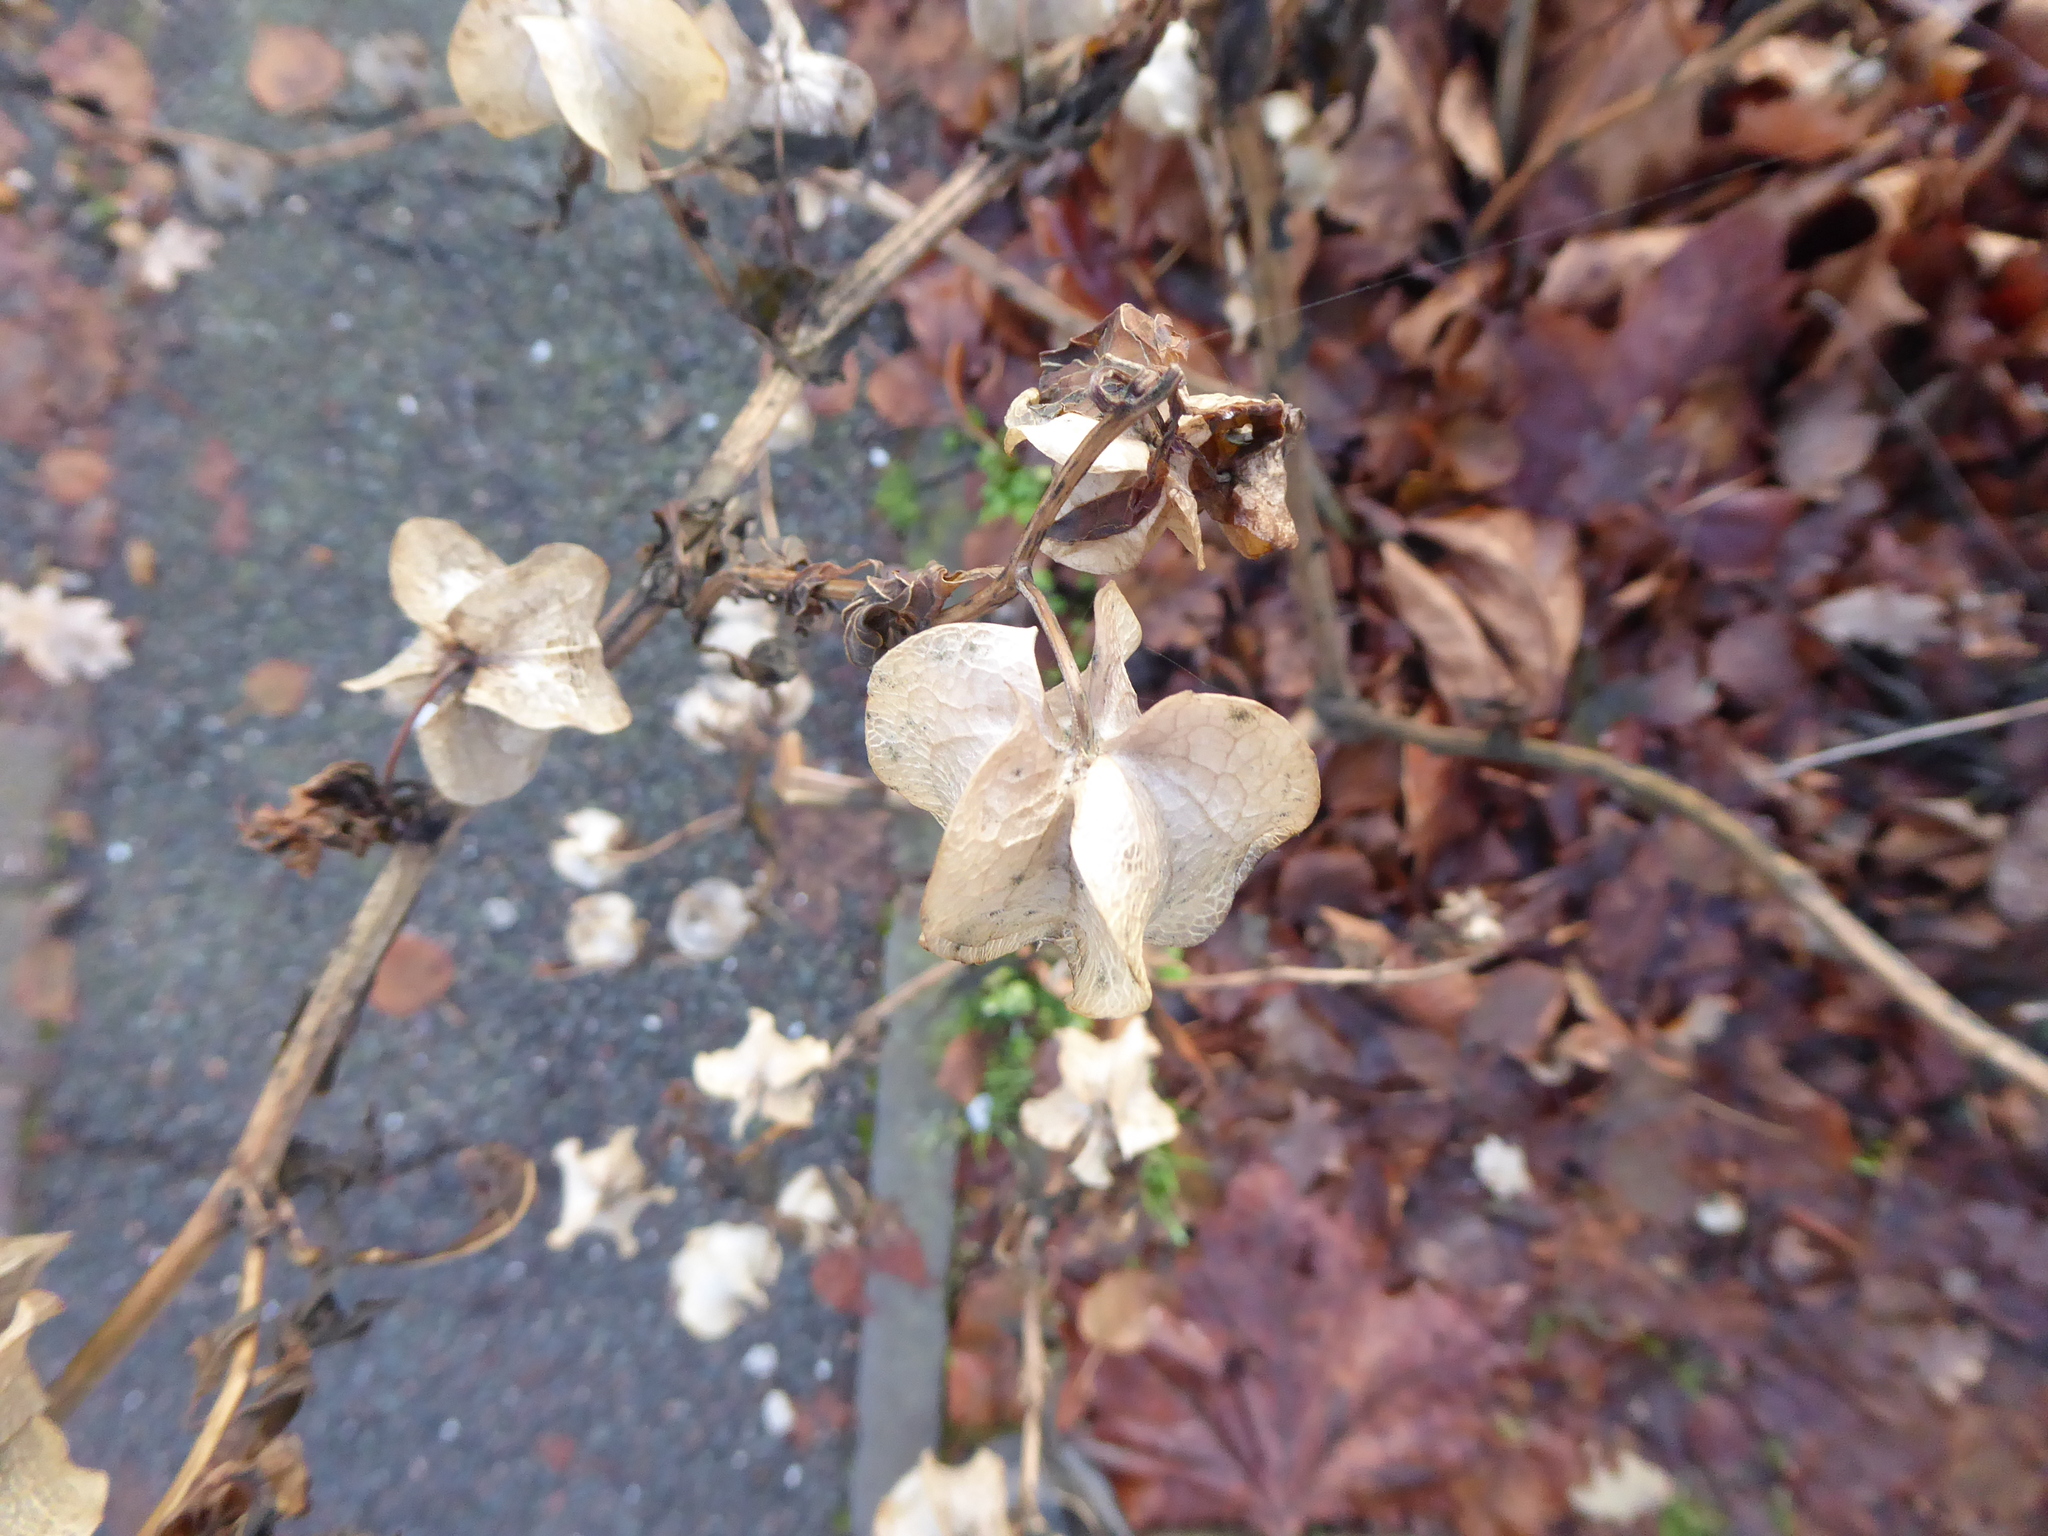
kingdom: Plantae
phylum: Tracheophyta
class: Magnoliopsida
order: Solanales
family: Solanaceae
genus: Nicandra
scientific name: Nicandra physalodes
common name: Apple-of-peru
